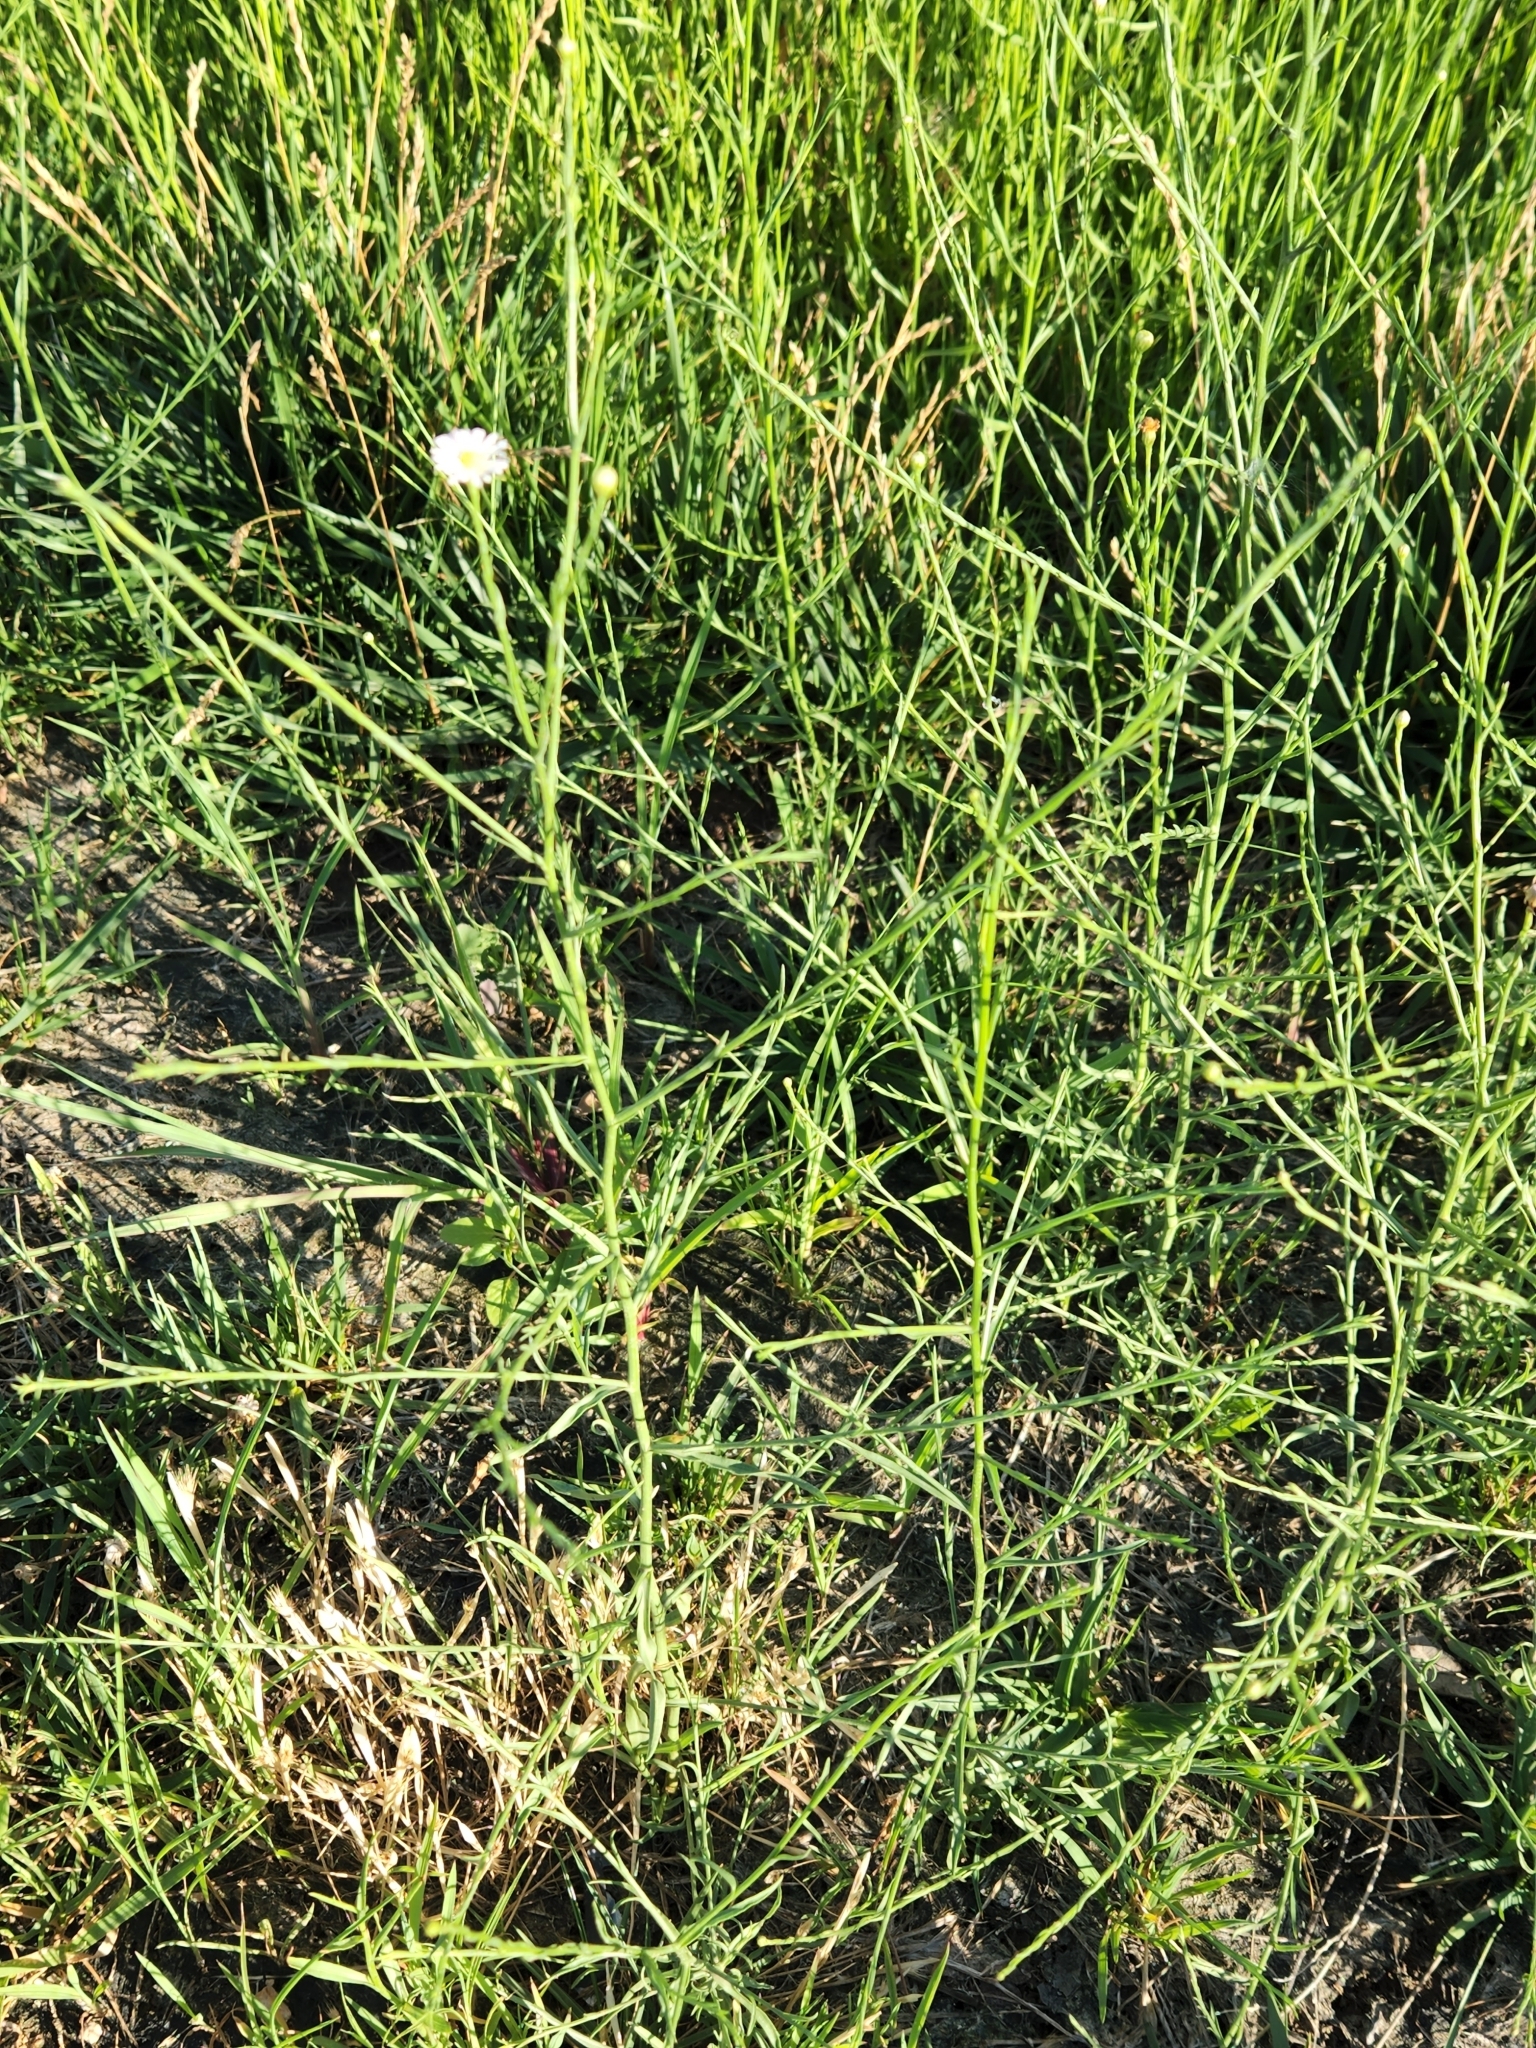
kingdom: Plantae
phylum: Tracheophyta
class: Magnoliopsida
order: Asterales
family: Asteraceae
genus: Symphyotrichum
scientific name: Symphyotrichum divaricatum
